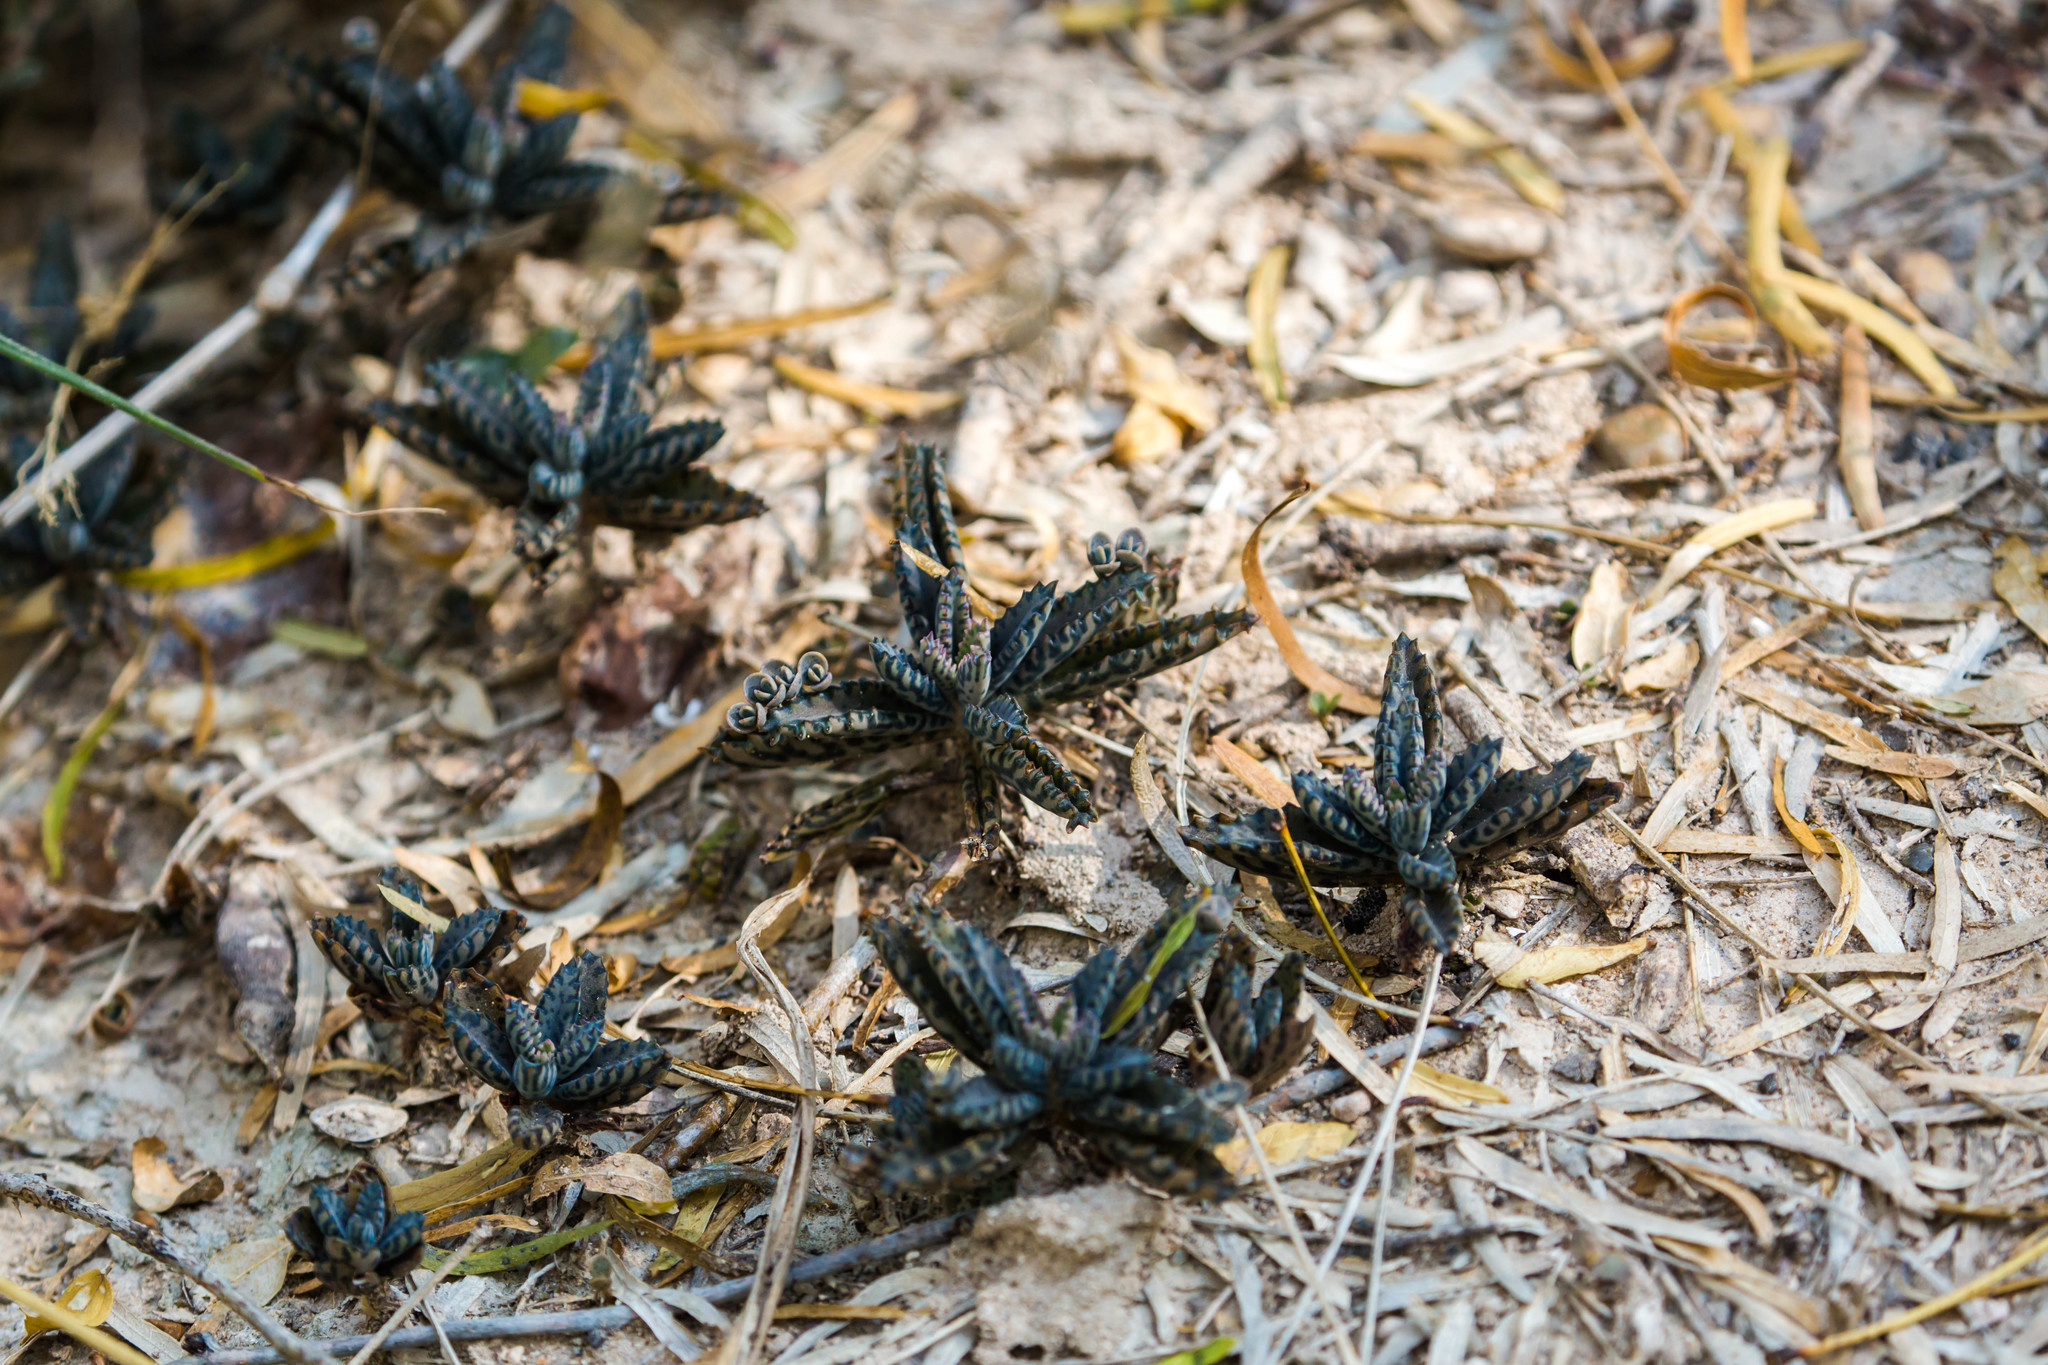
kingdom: Plantae
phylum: Tracheophyta
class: Magnoliopsida
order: Saxifragales
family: Crassulaceae
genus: Kalanchoe
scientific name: Kalanchoe houghtonii
